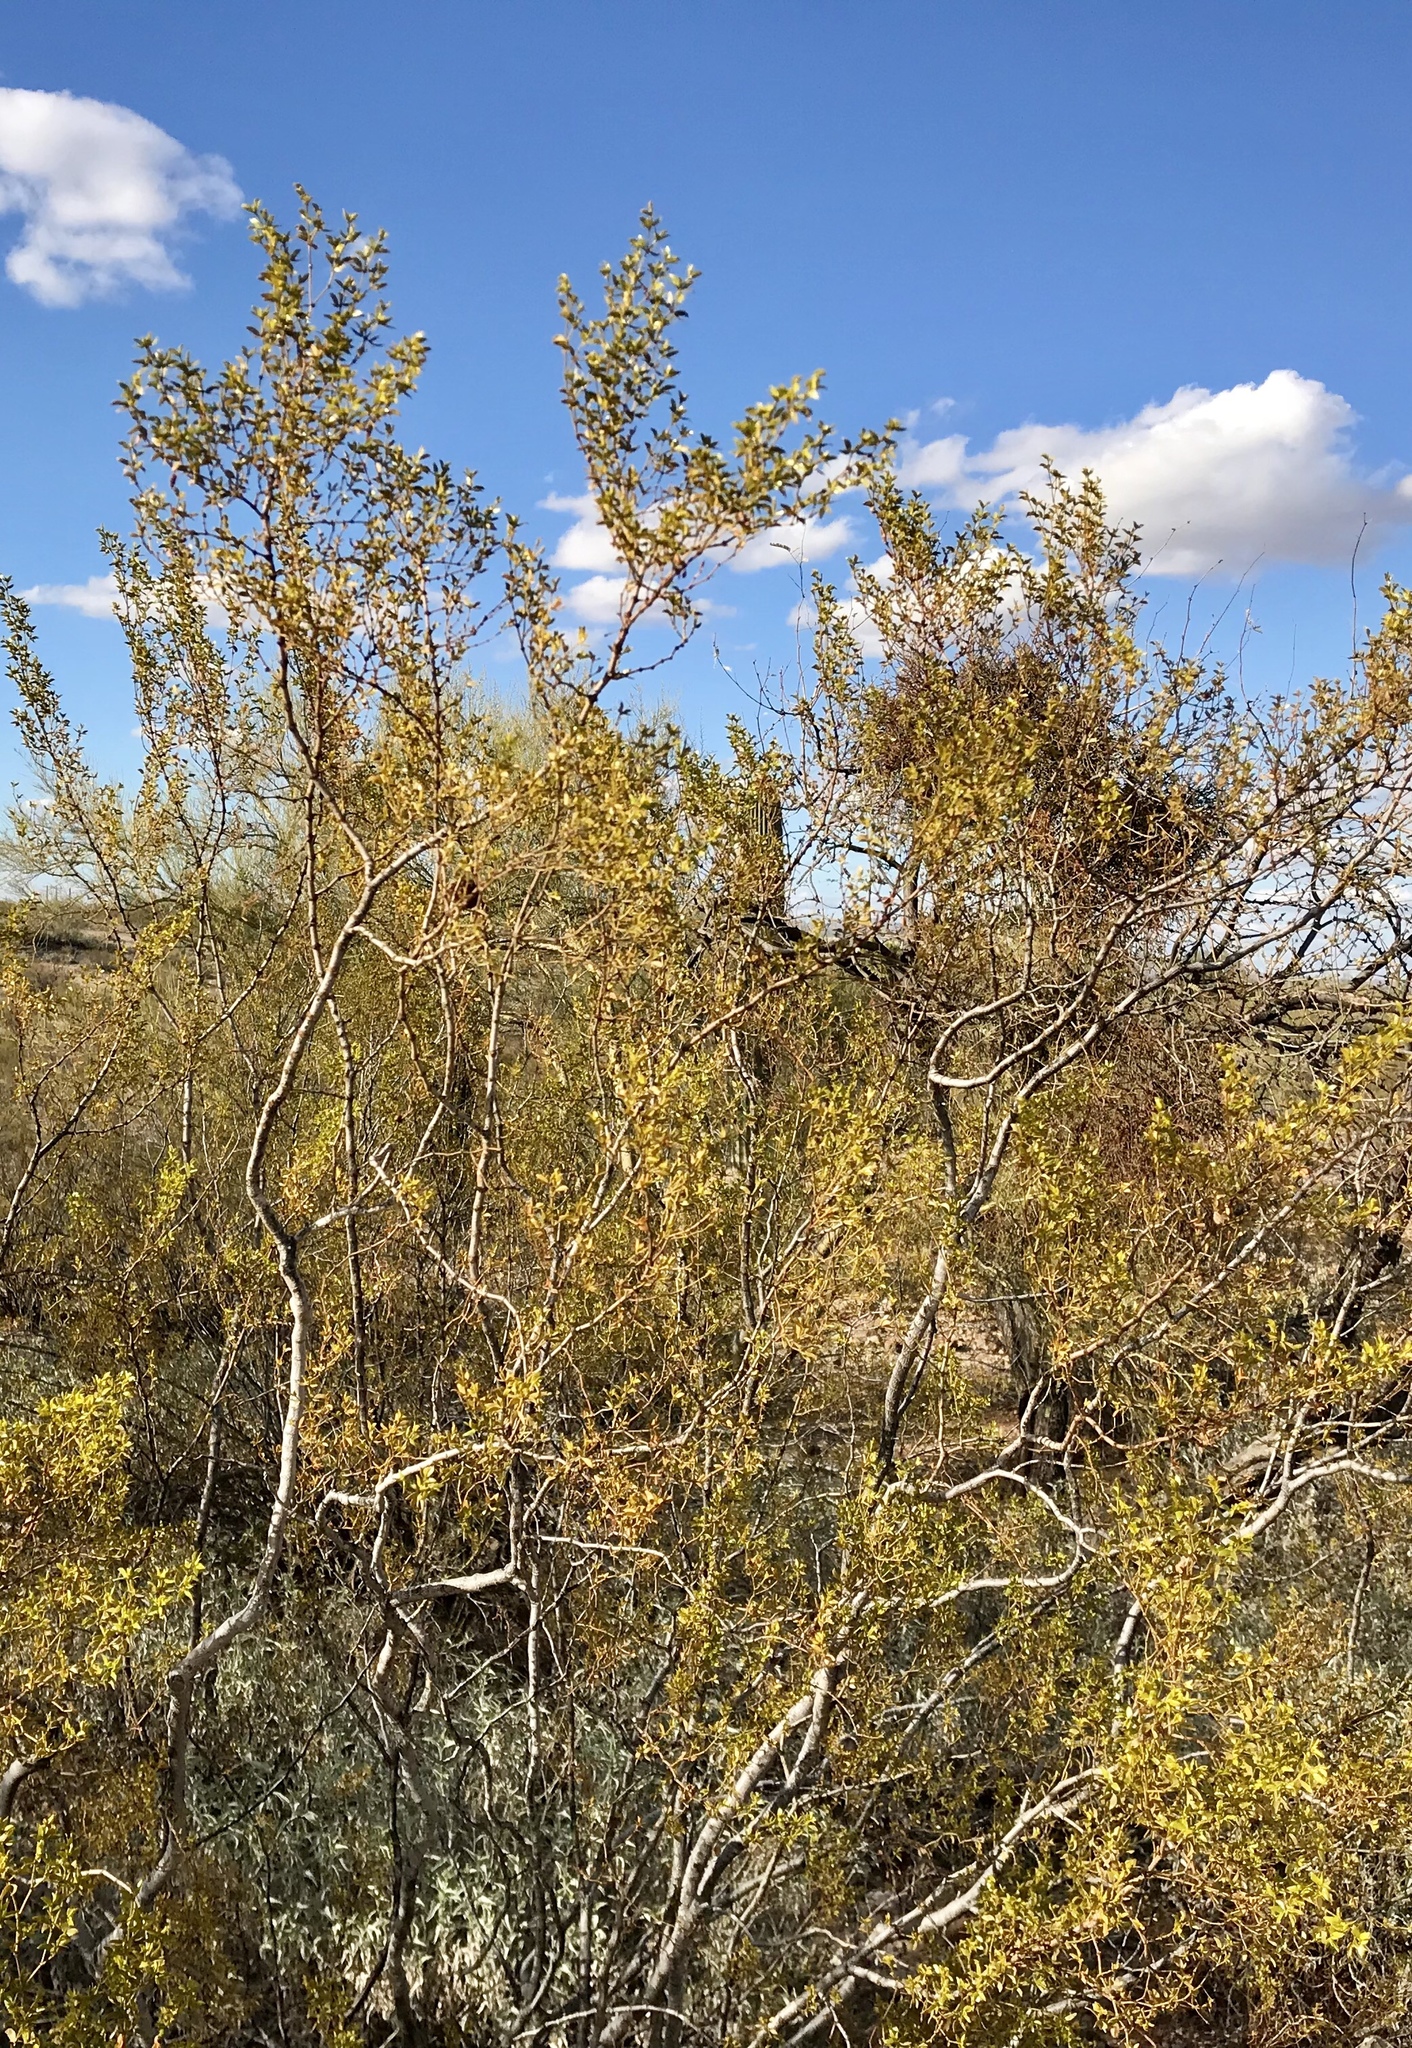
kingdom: Plantae
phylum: Tracheophyta
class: Magnoliopsida
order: Zygophyllales
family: Zygophyllaceae
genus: Larrea
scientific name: Larrea tridentata
